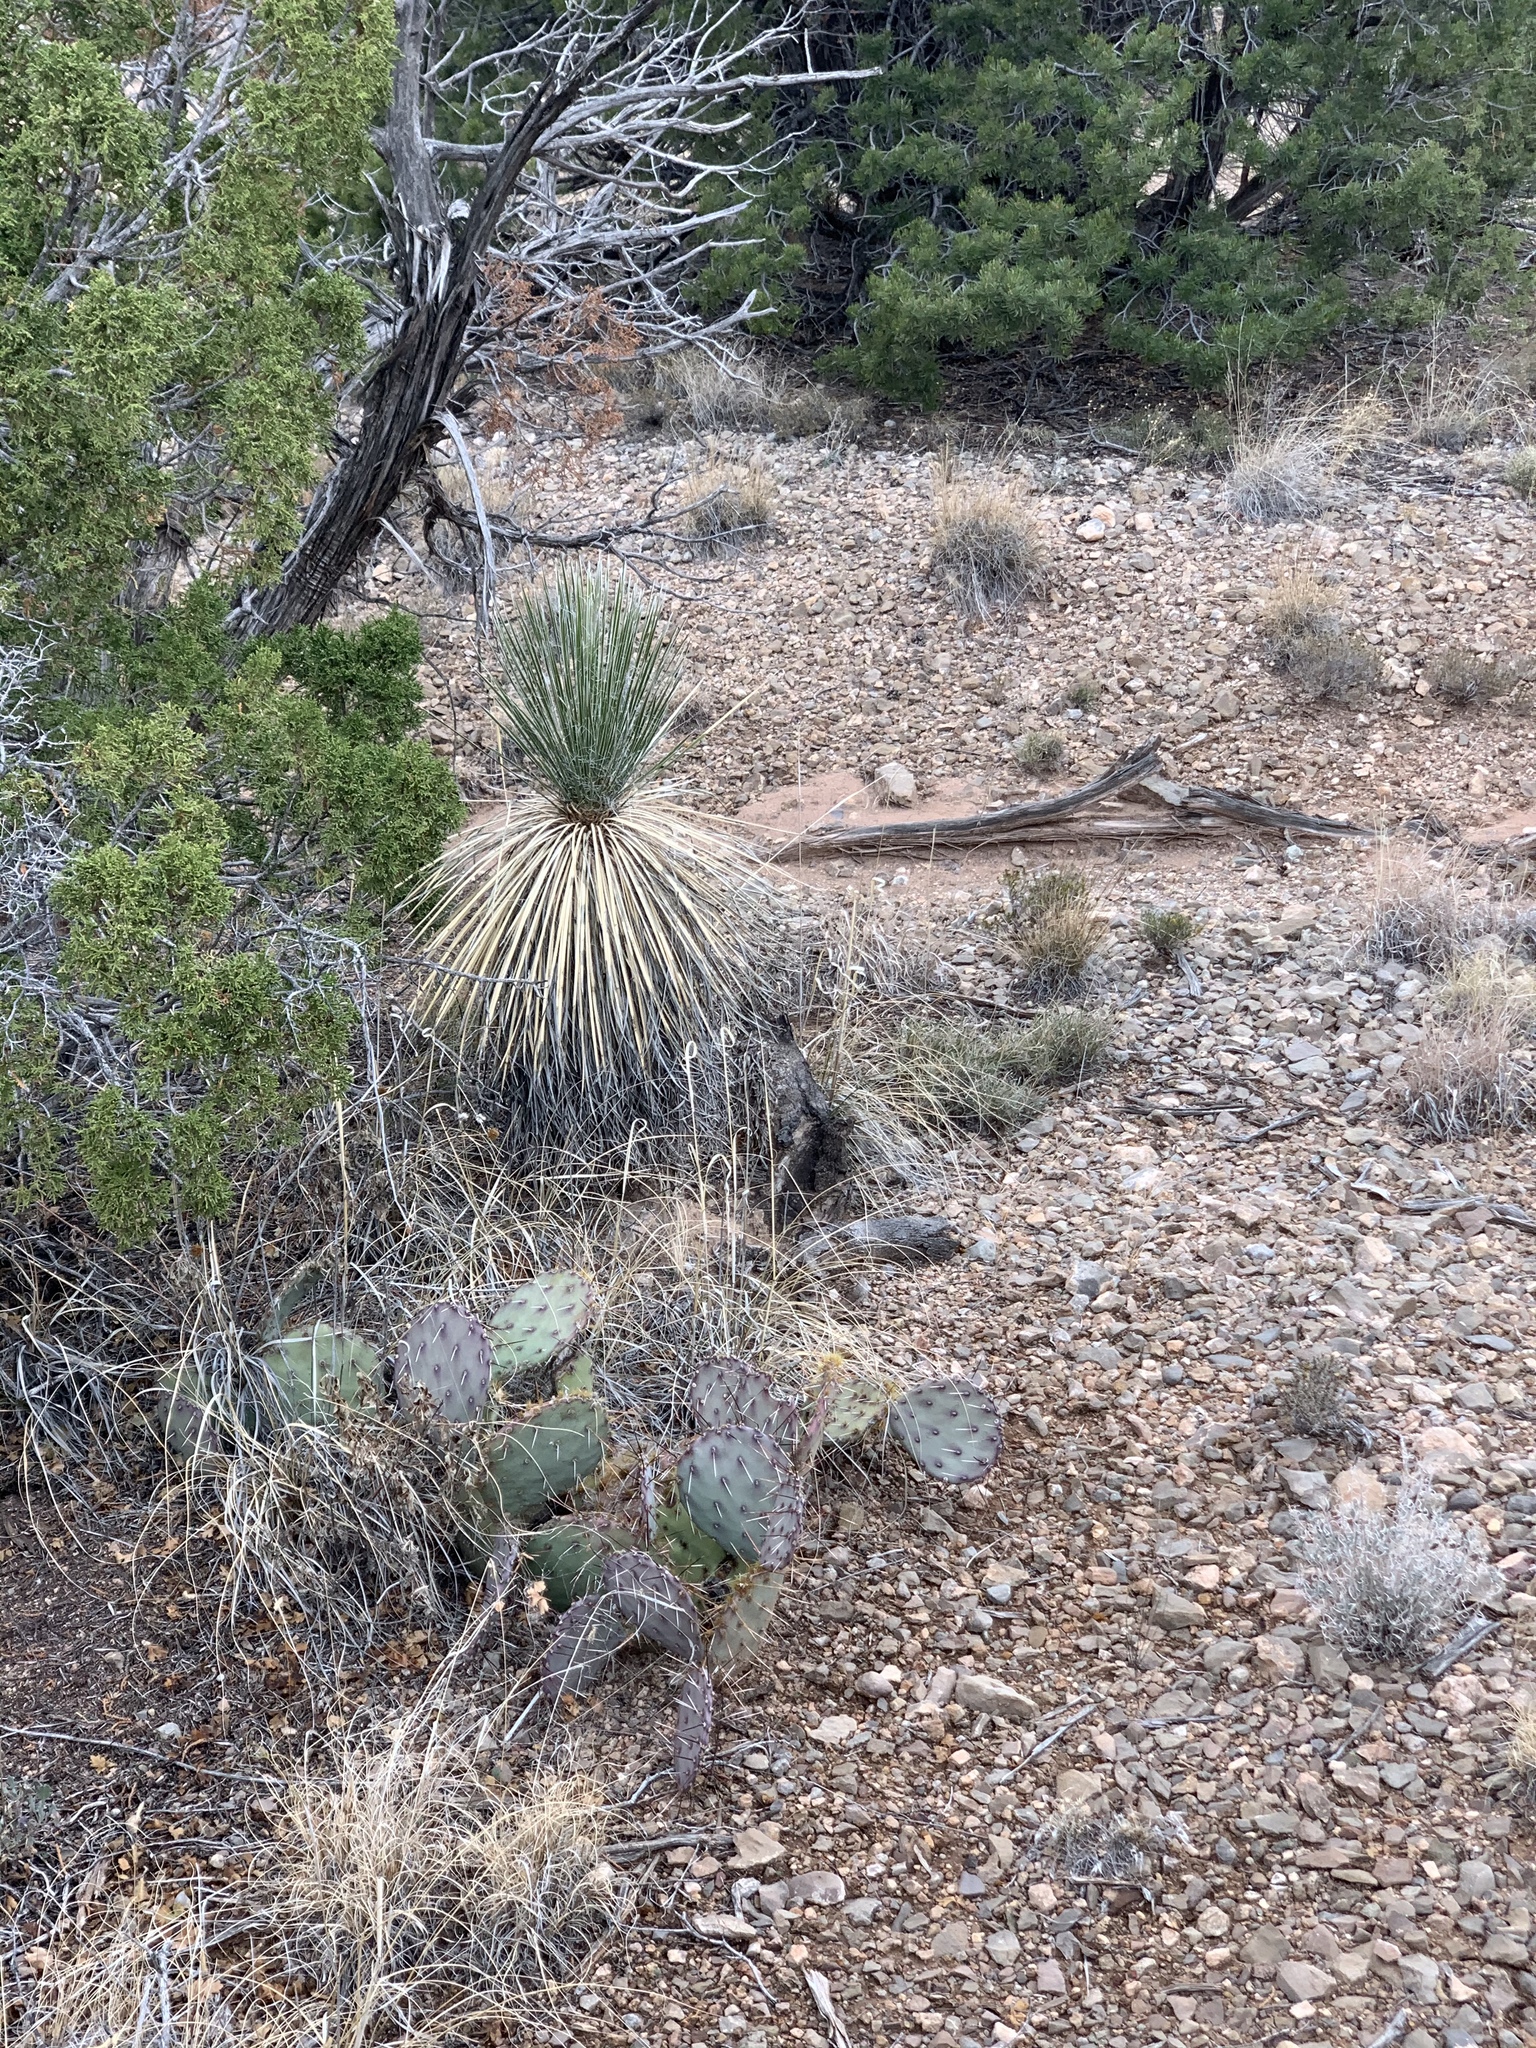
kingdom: Plantae
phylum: Tracheophyta
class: Liliopsida
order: Asparagales
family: Asparagaceae
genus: Yucca
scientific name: Yucca elata
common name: Palmella
